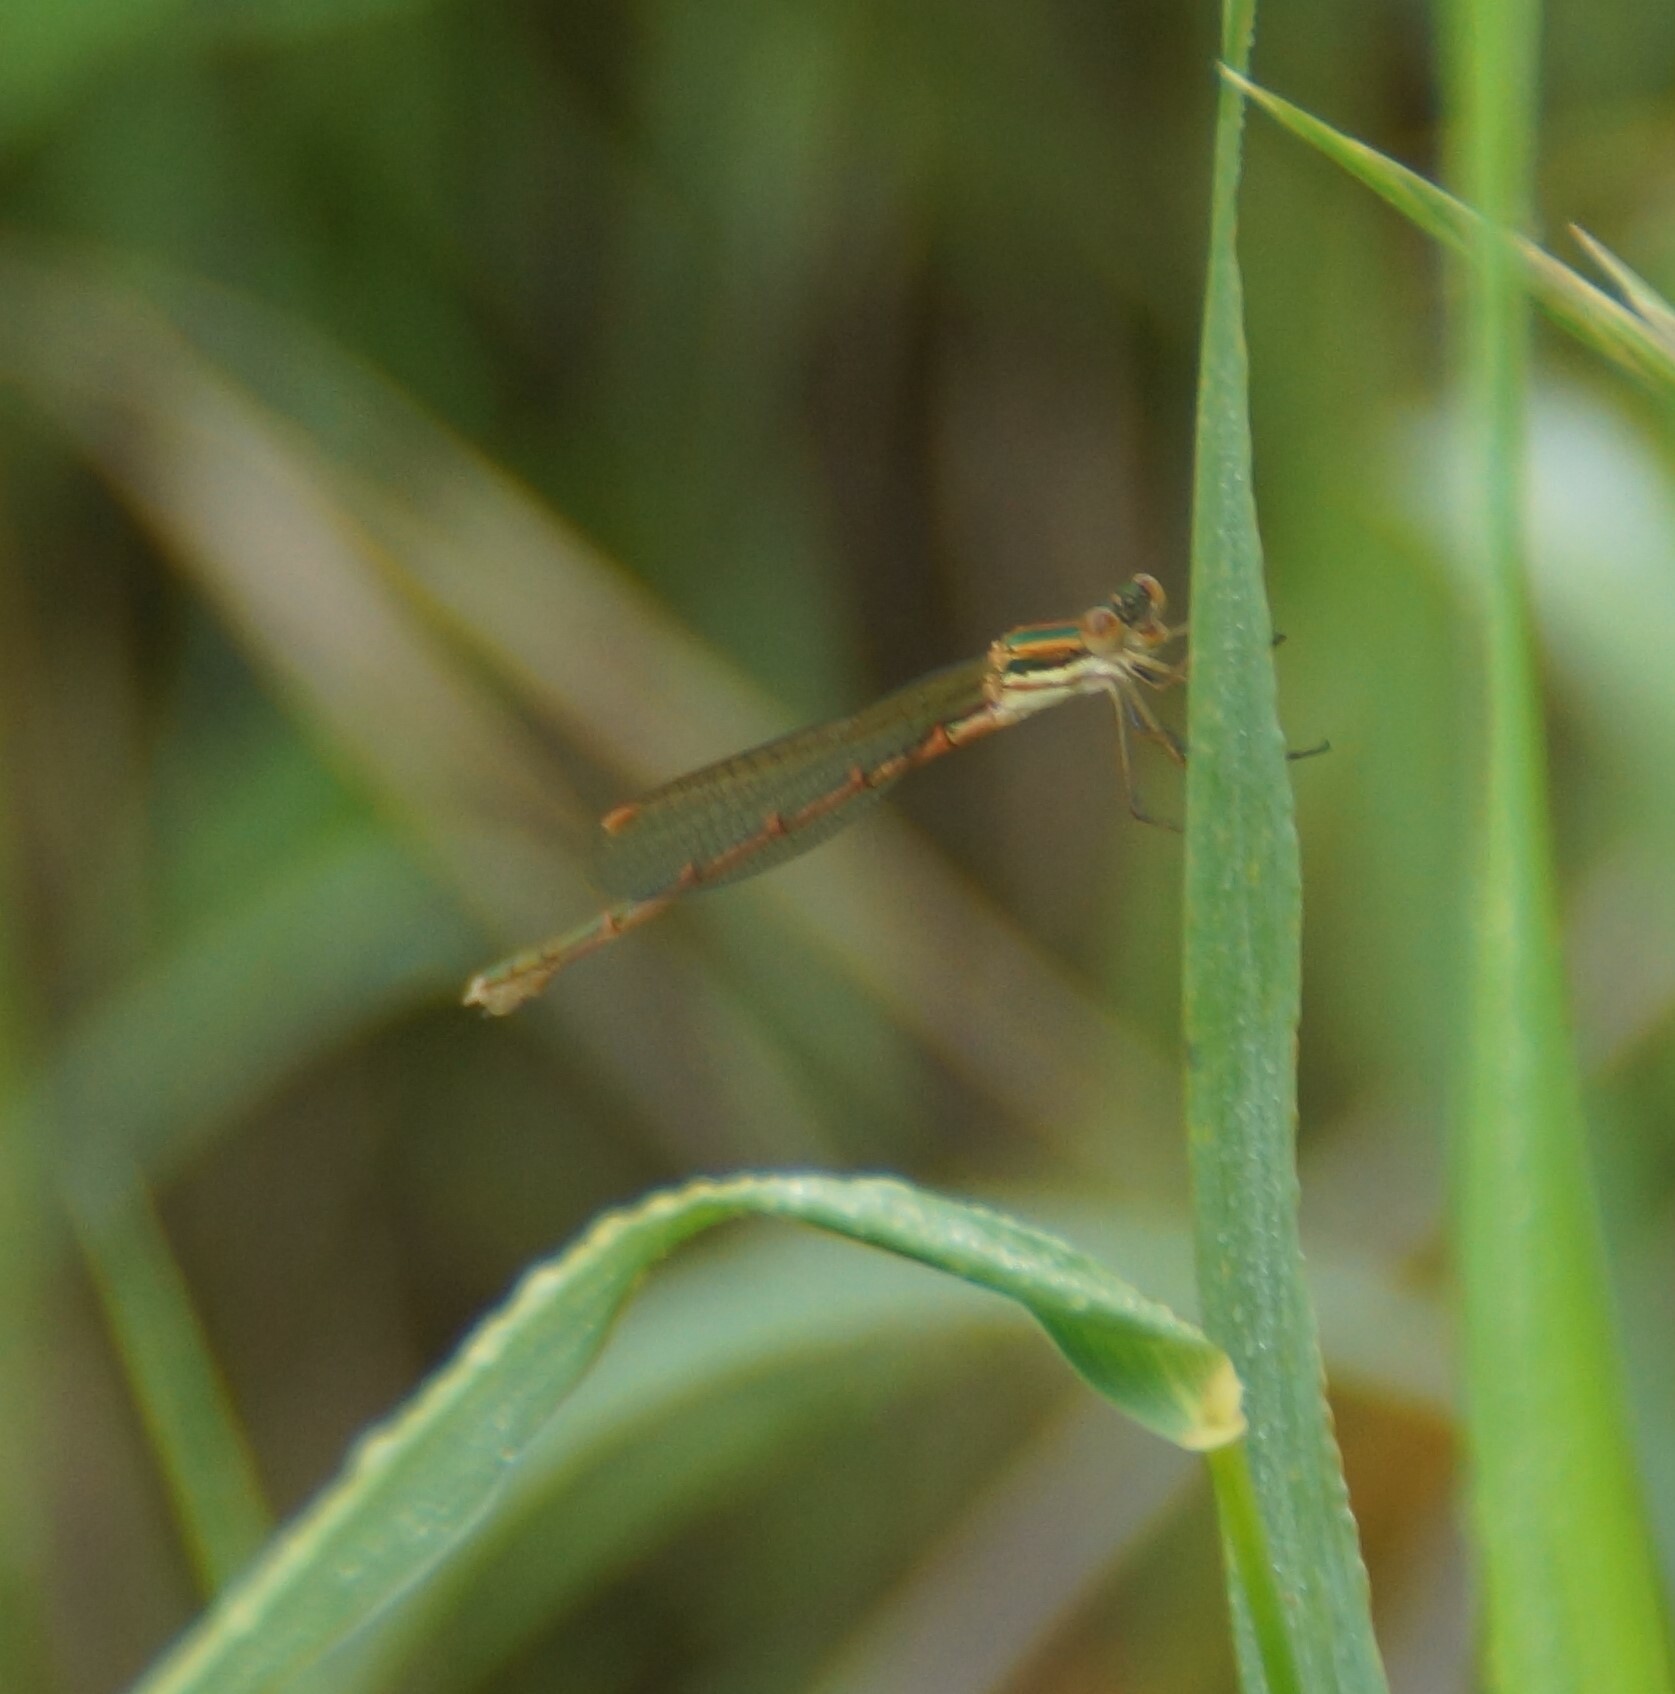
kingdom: Animalia
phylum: Arthropoda
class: Insecta
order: Odonata
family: Lestidae
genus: Austrolestes
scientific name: Austrolestes analis
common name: Slender ringtail
